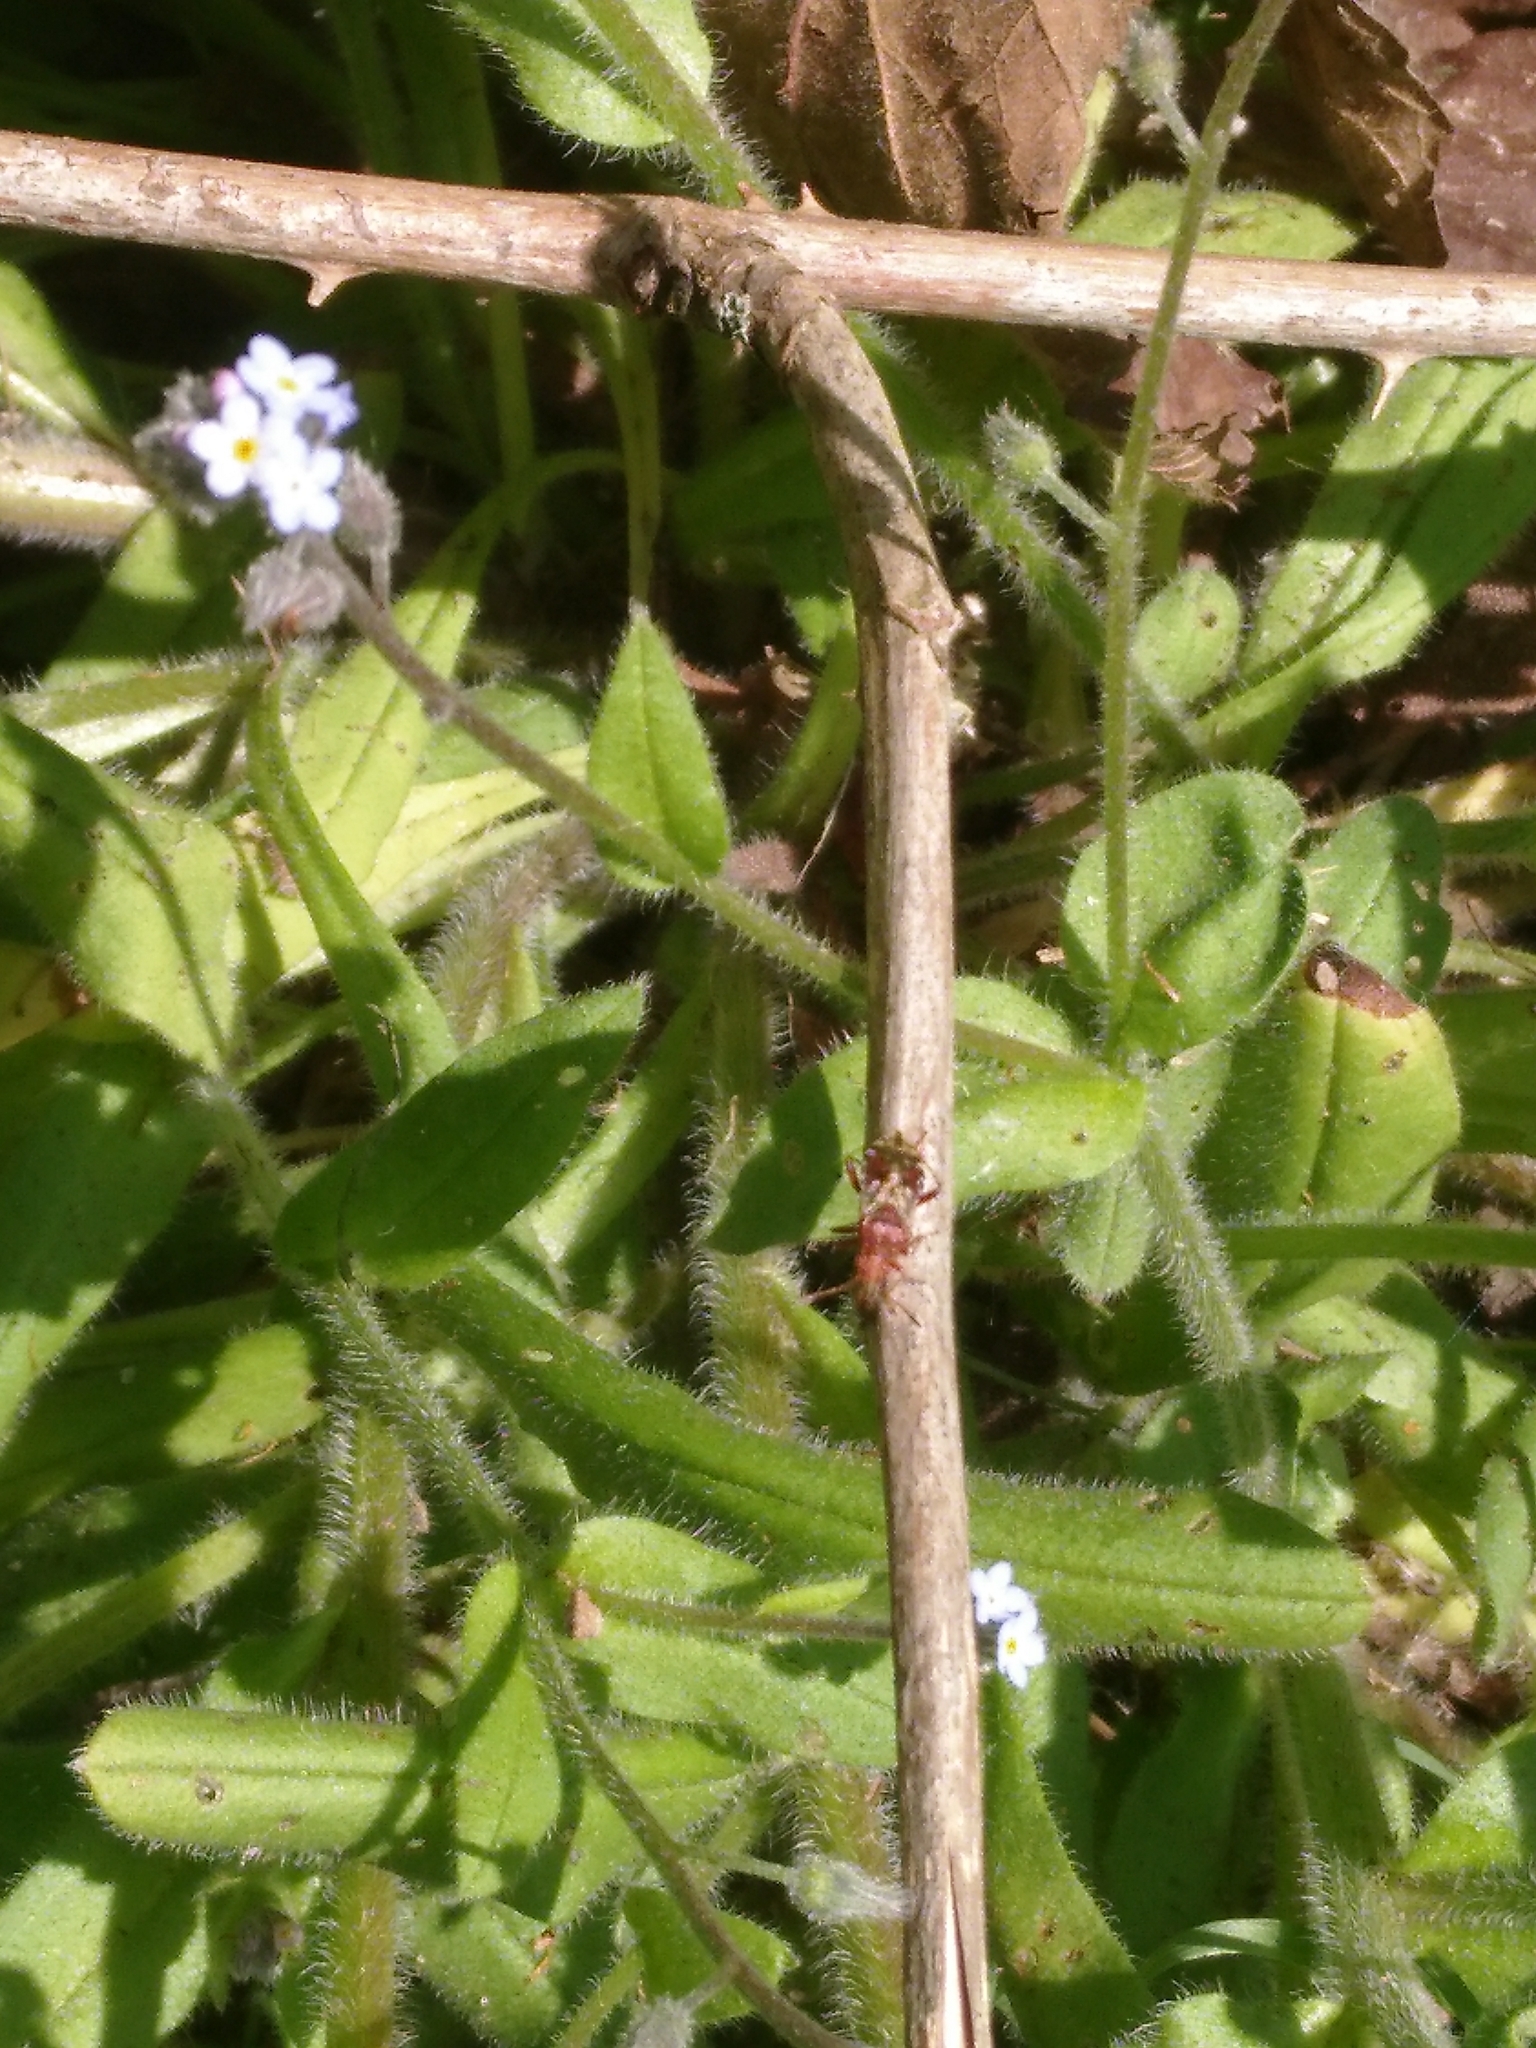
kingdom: Animalia
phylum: Arthropoda
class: Insecta
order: Hemiptera
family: Rhopalidae
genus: Rhopalus
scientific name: Rhopalus subrufus
